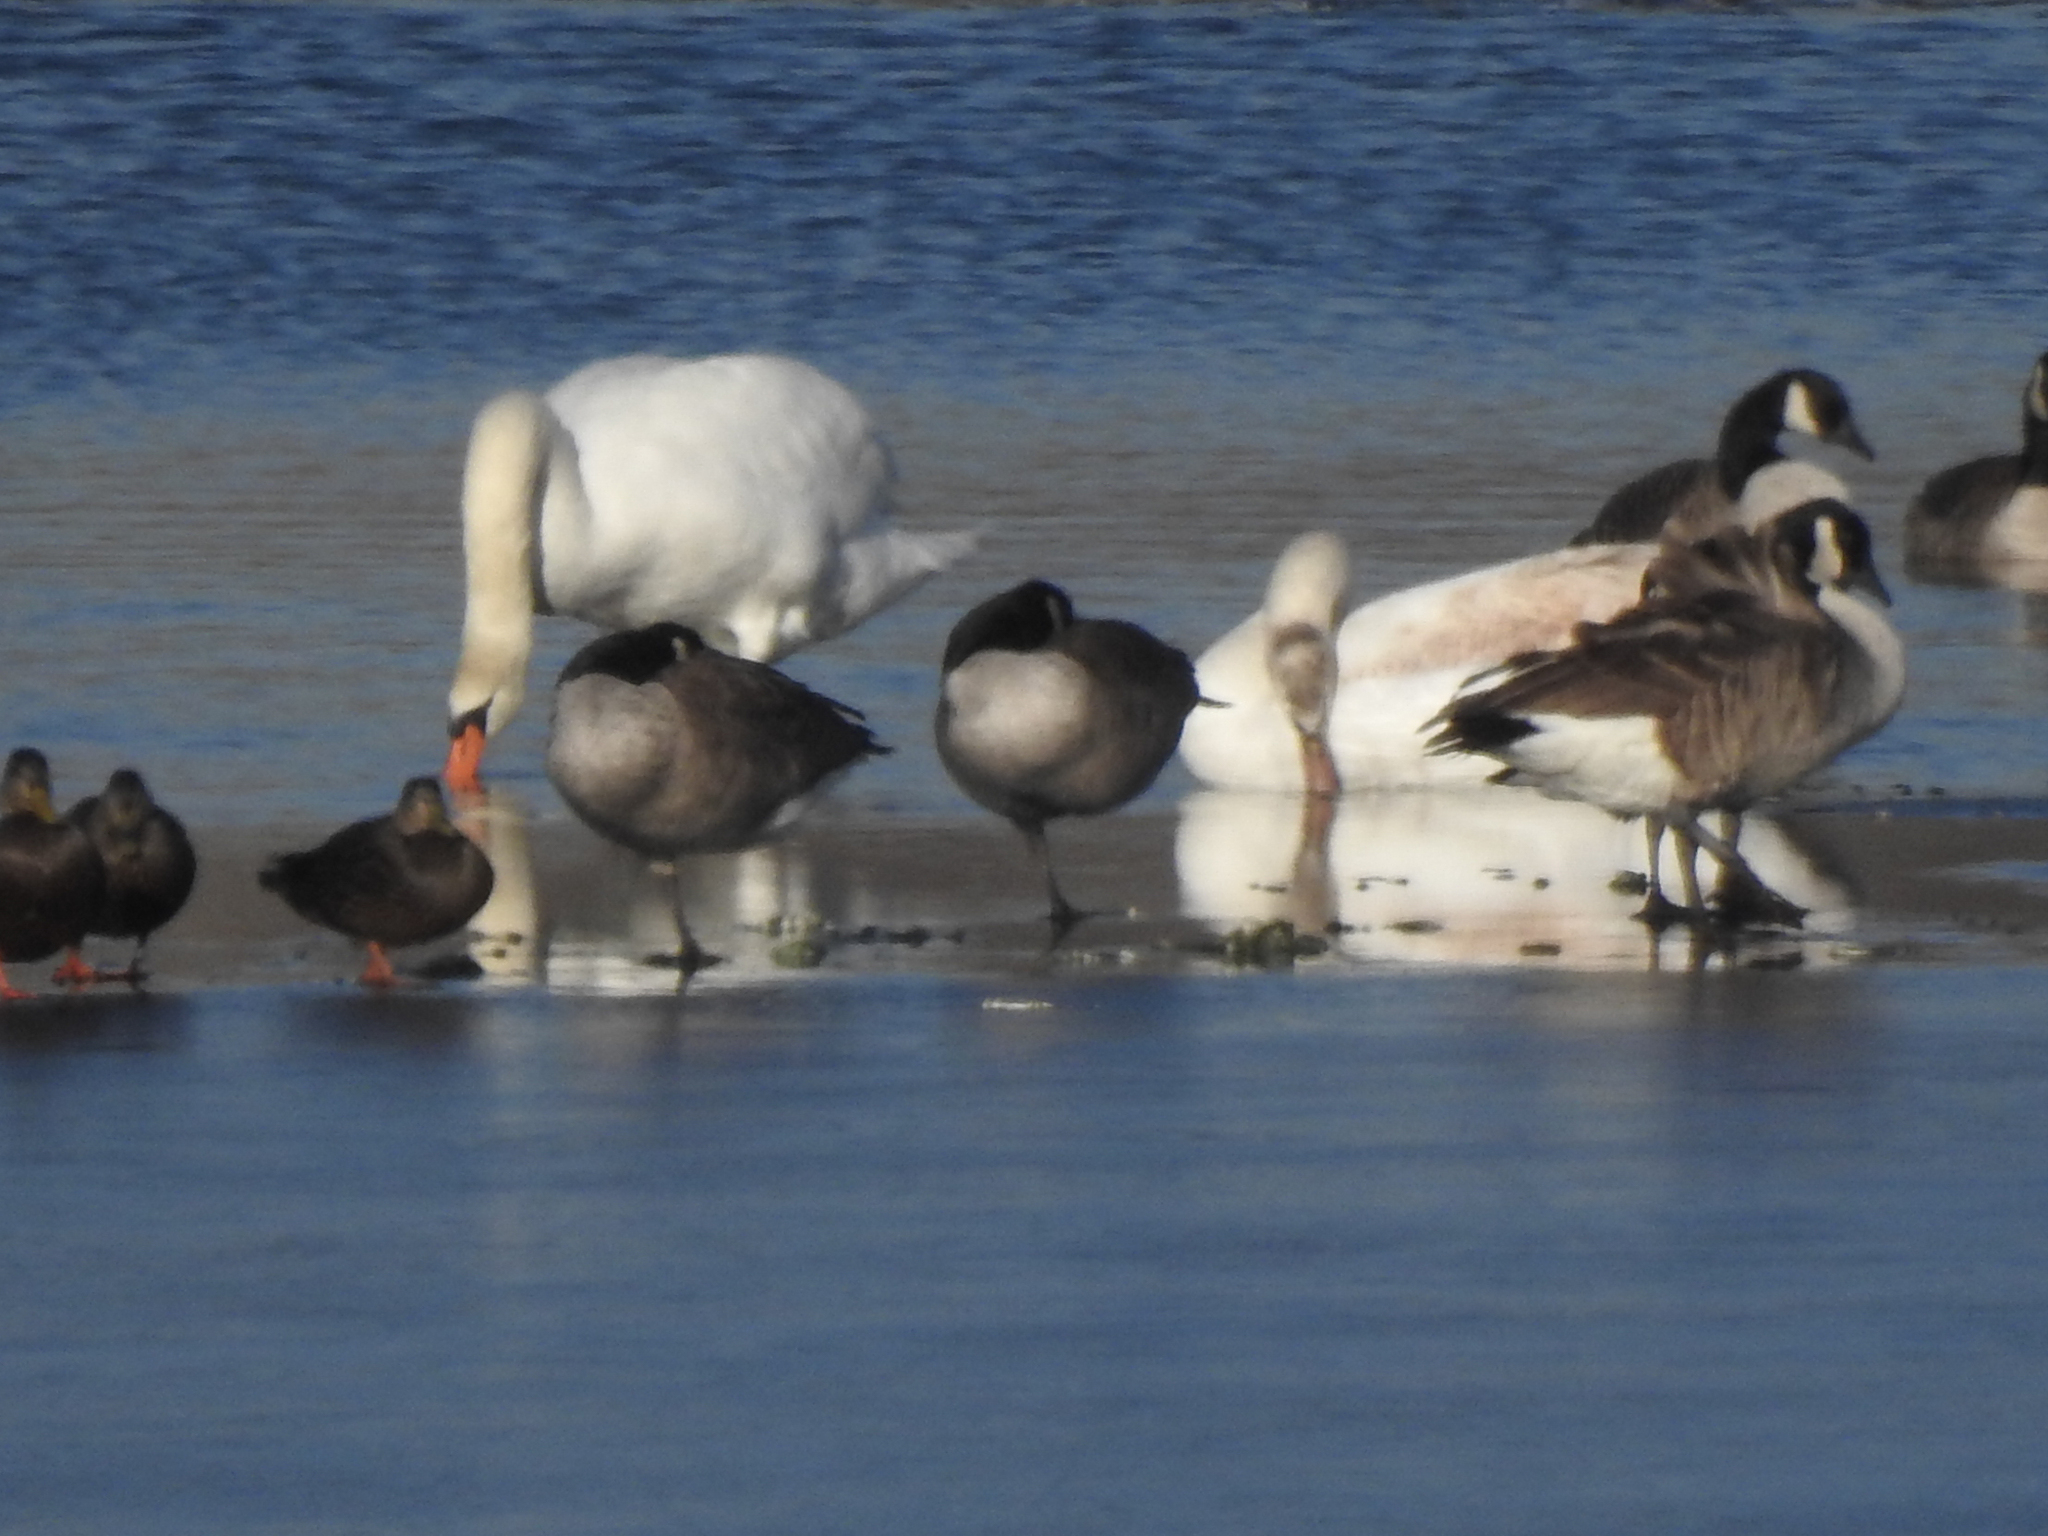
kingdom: Animalia
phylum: Chordata
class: Aves
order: Anseriformes
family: Anatidae
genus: Cygnus
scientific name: Cygnus olor
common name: Mute swan
